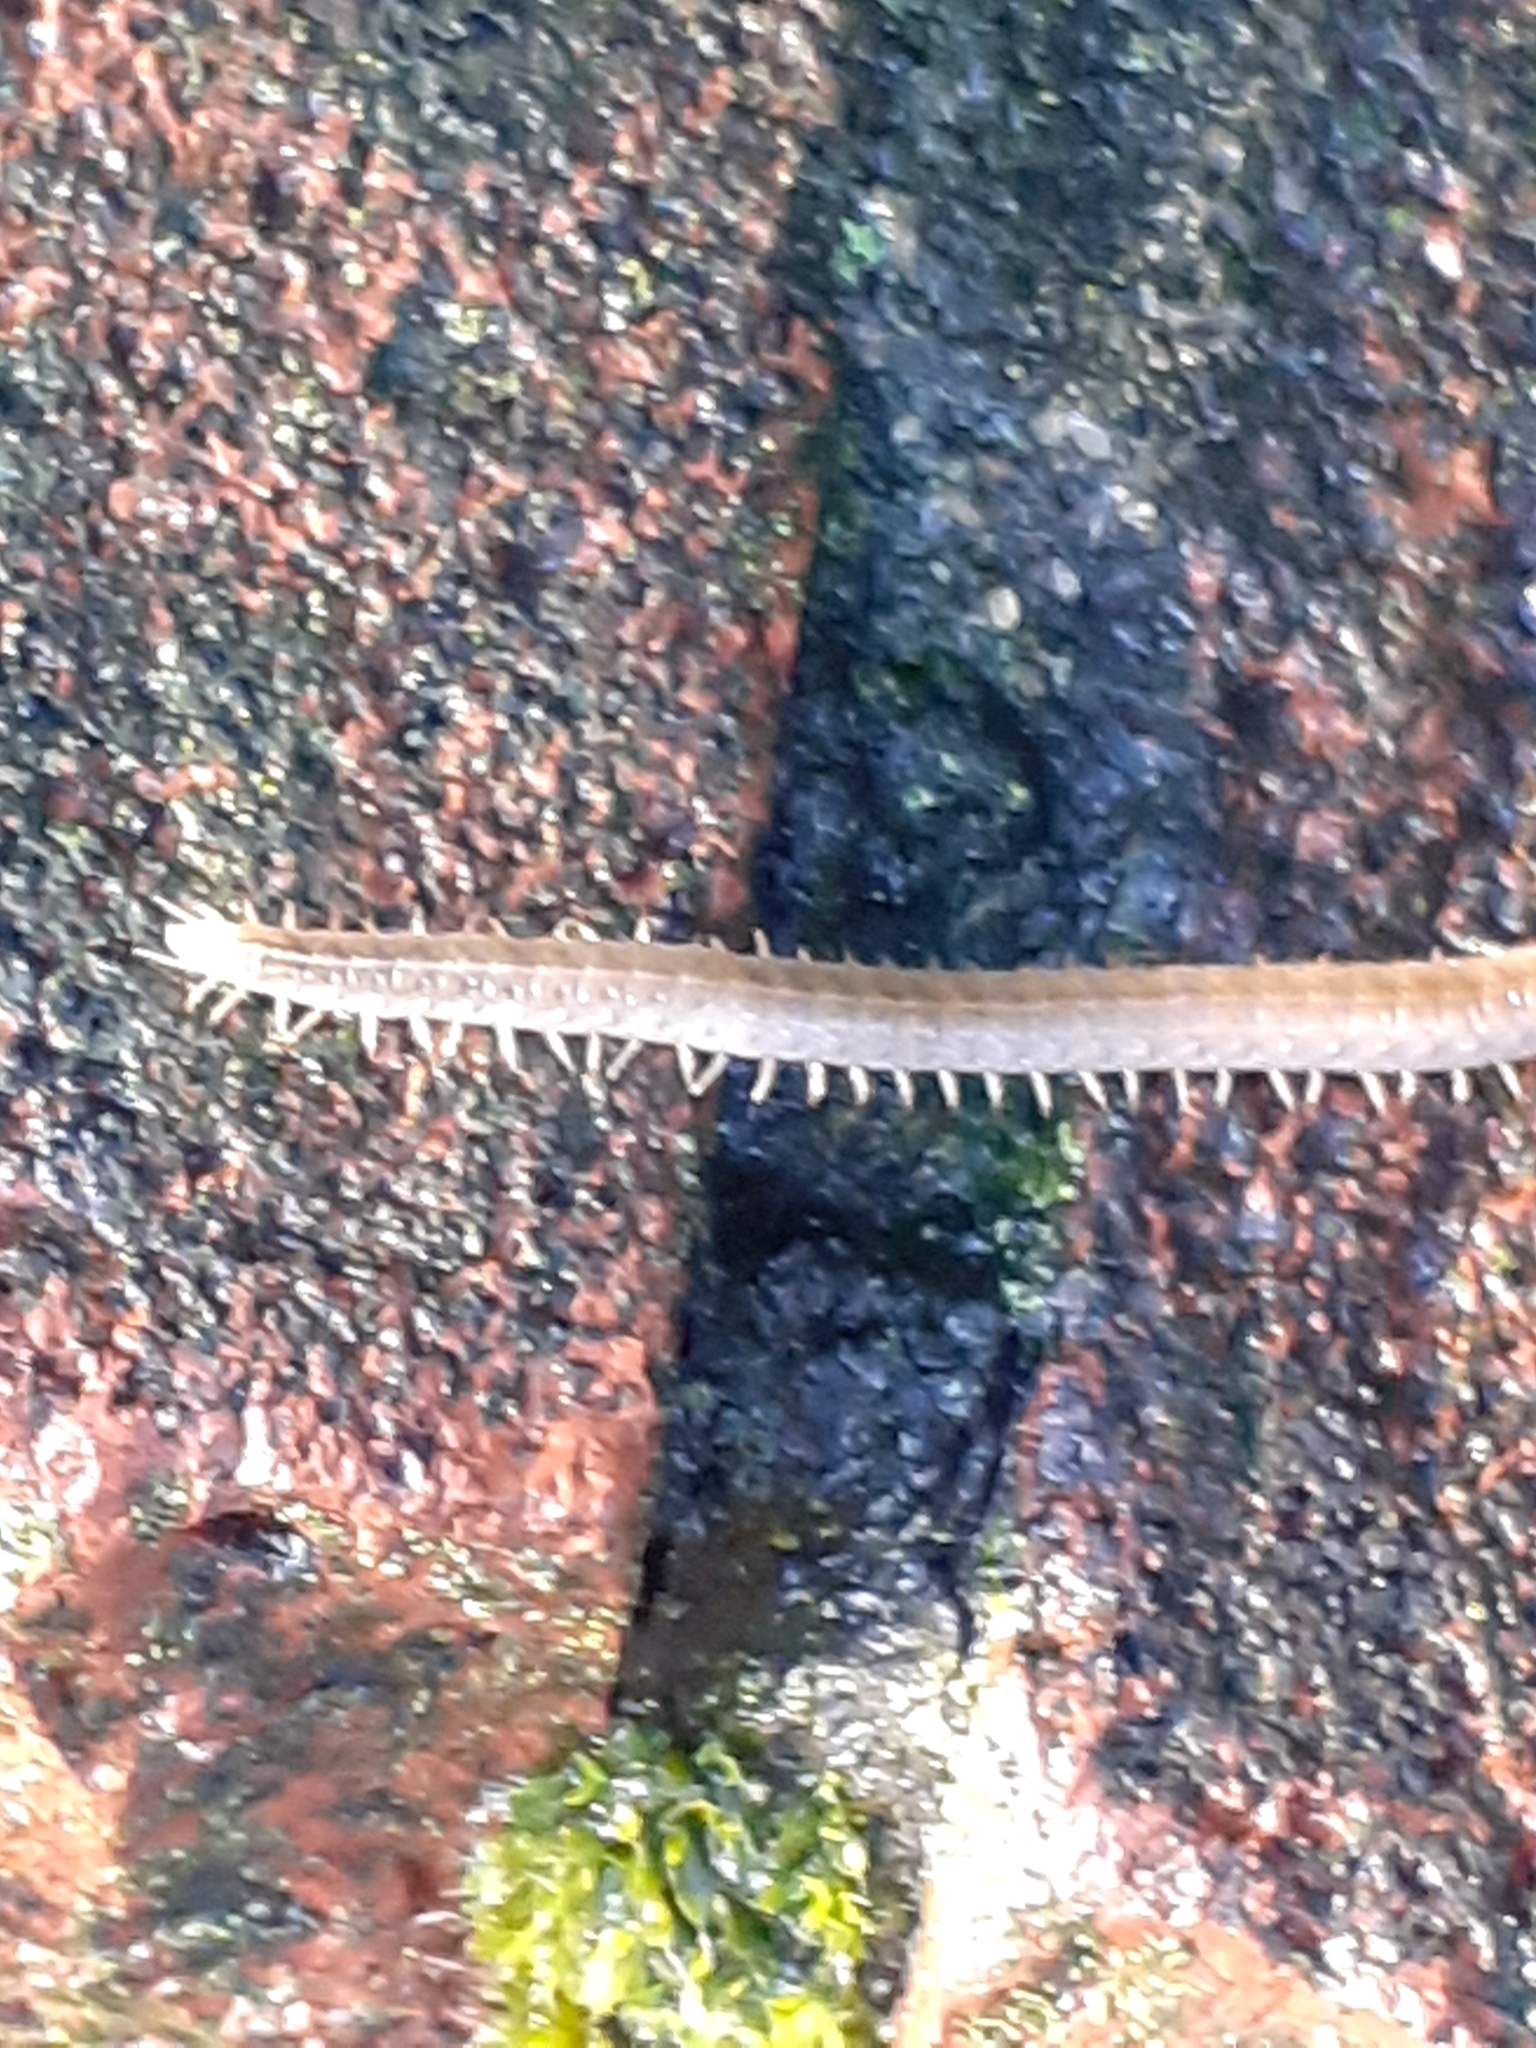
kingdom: Animalia
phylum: Arthropoda
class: Chilopoda
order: Geophilomorpha
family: Dignathodontidae
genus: Henia
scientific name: Henia vesuviana
